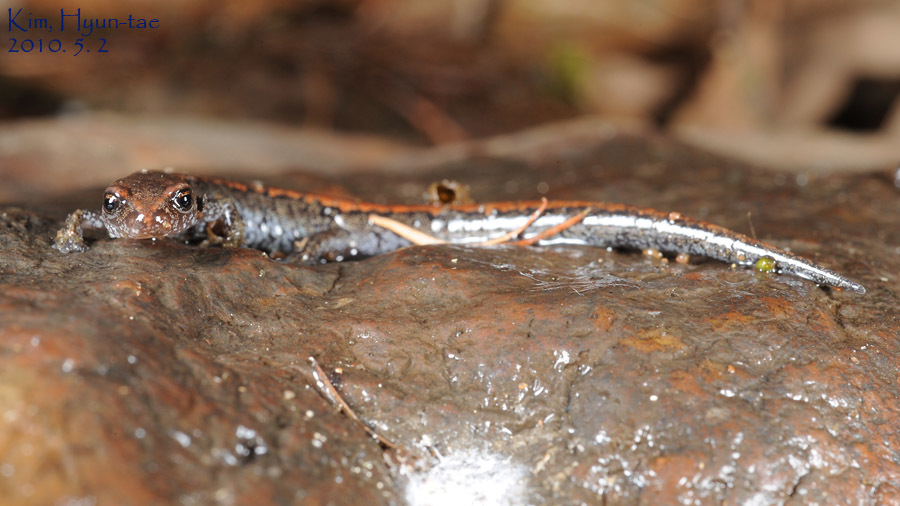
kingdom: Animalia
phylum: Chordata
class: Amphibia
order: Caudata
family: Plethodontidae
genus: Karsenia
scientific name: Karsenia koreana
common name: Korean crevice salamander
